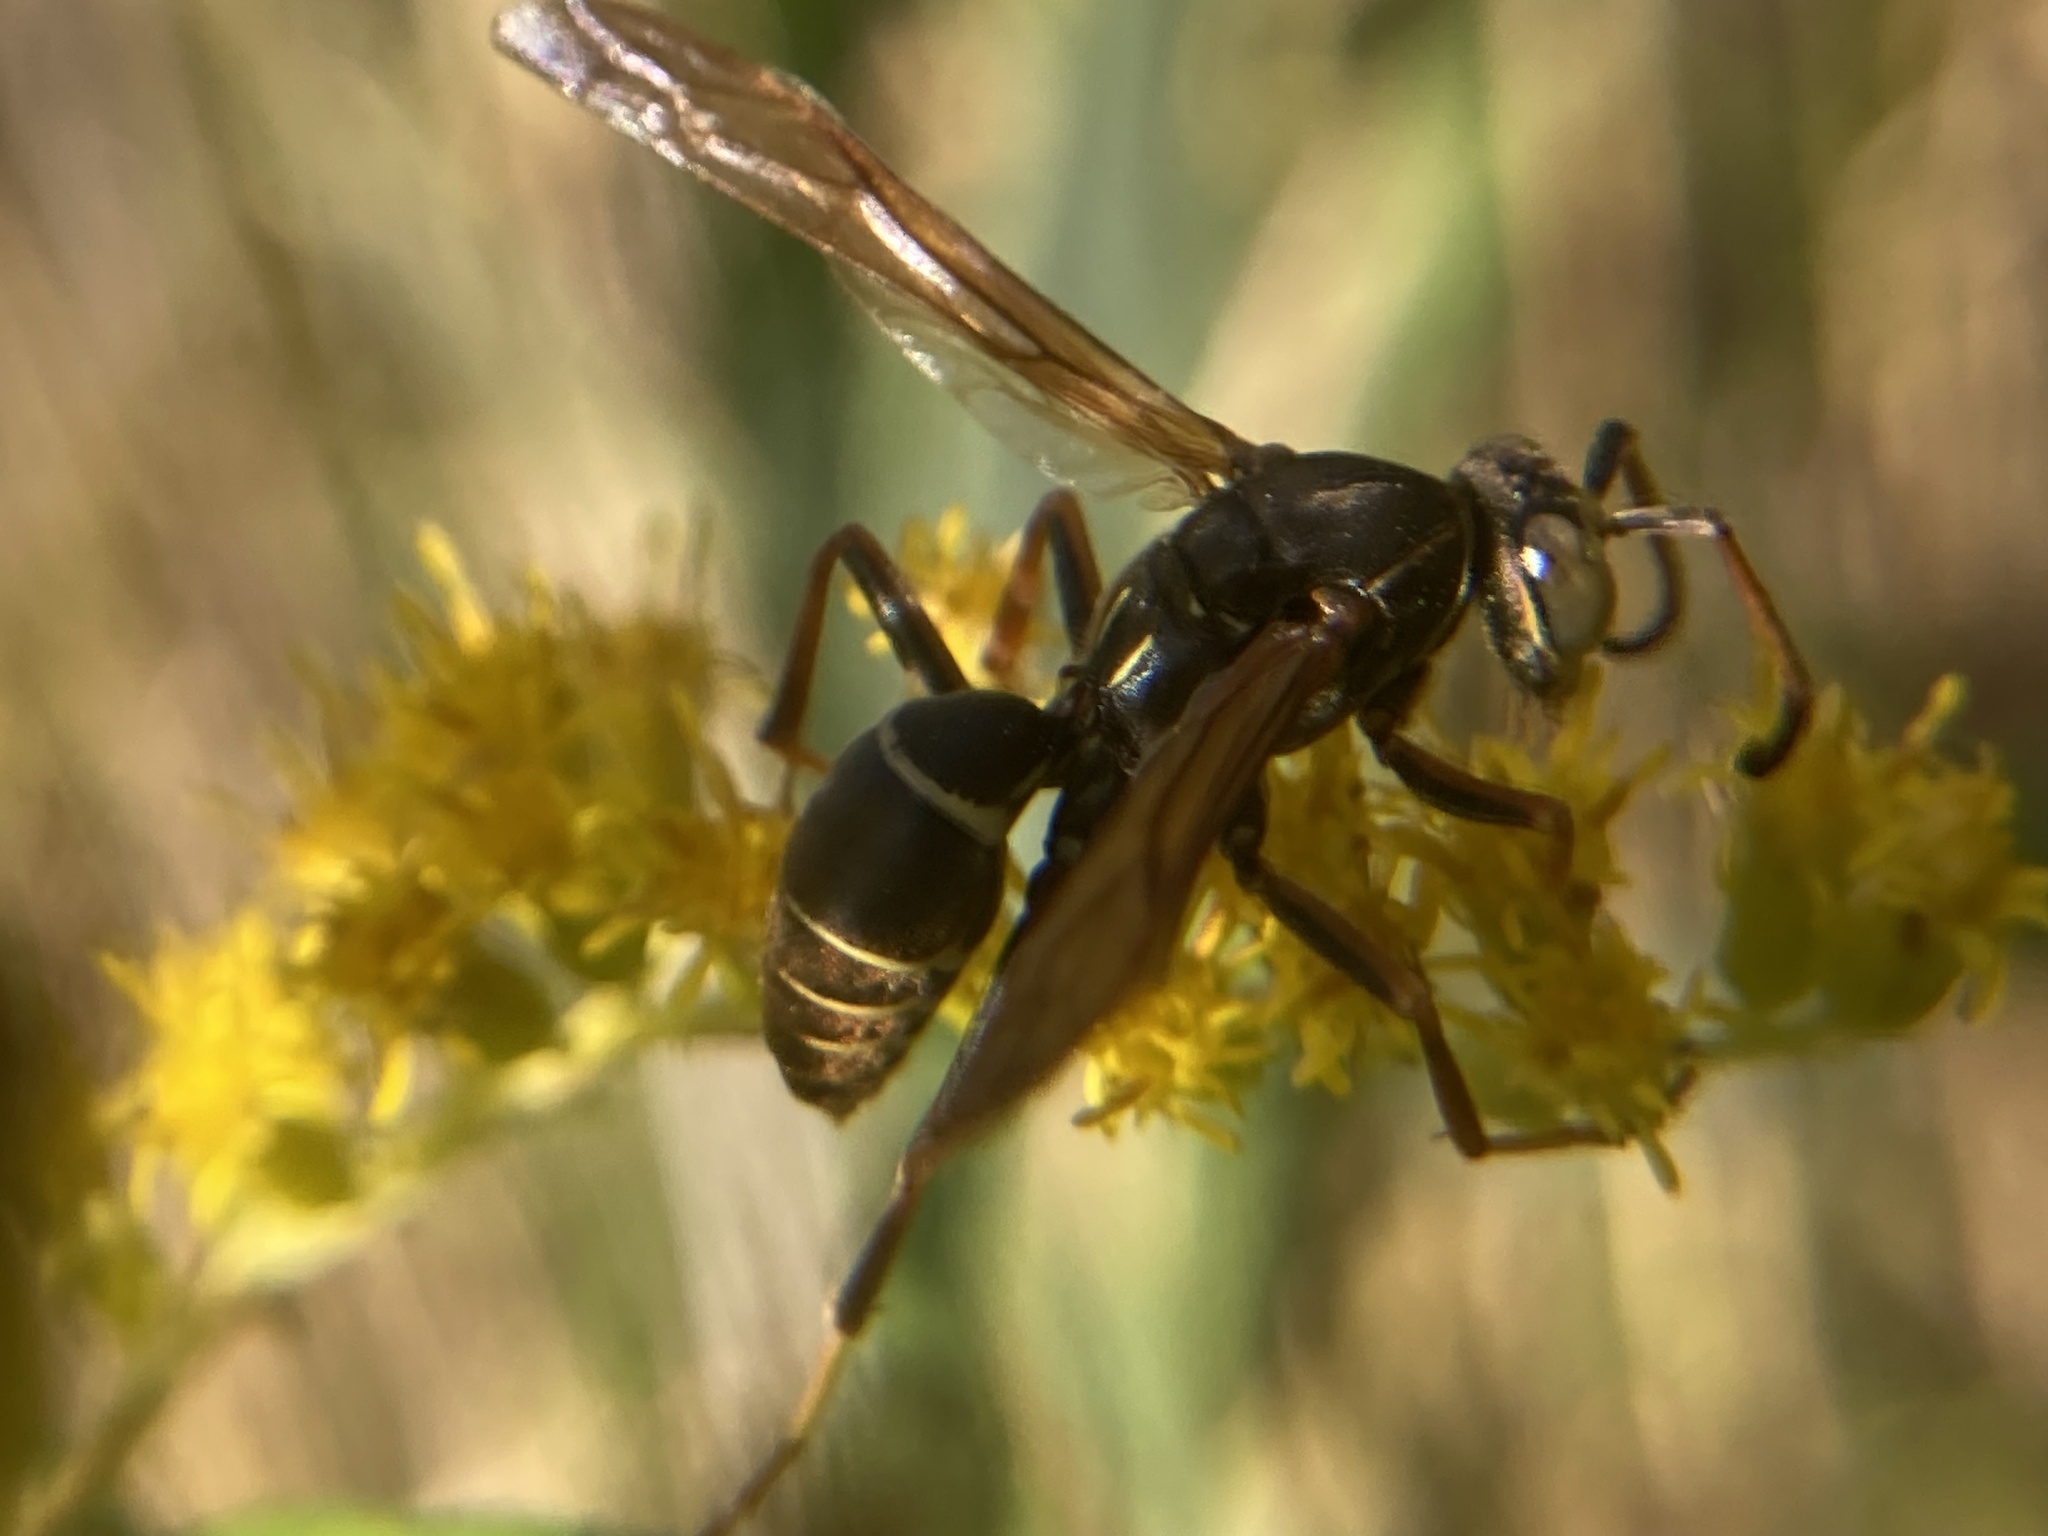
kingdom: Animalia
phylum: Arthropoda
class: Insecta
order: Hymenoptera
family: Eumenidae
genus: Polistes
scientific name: Polistes fuscatus
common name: Dark paper wasp
